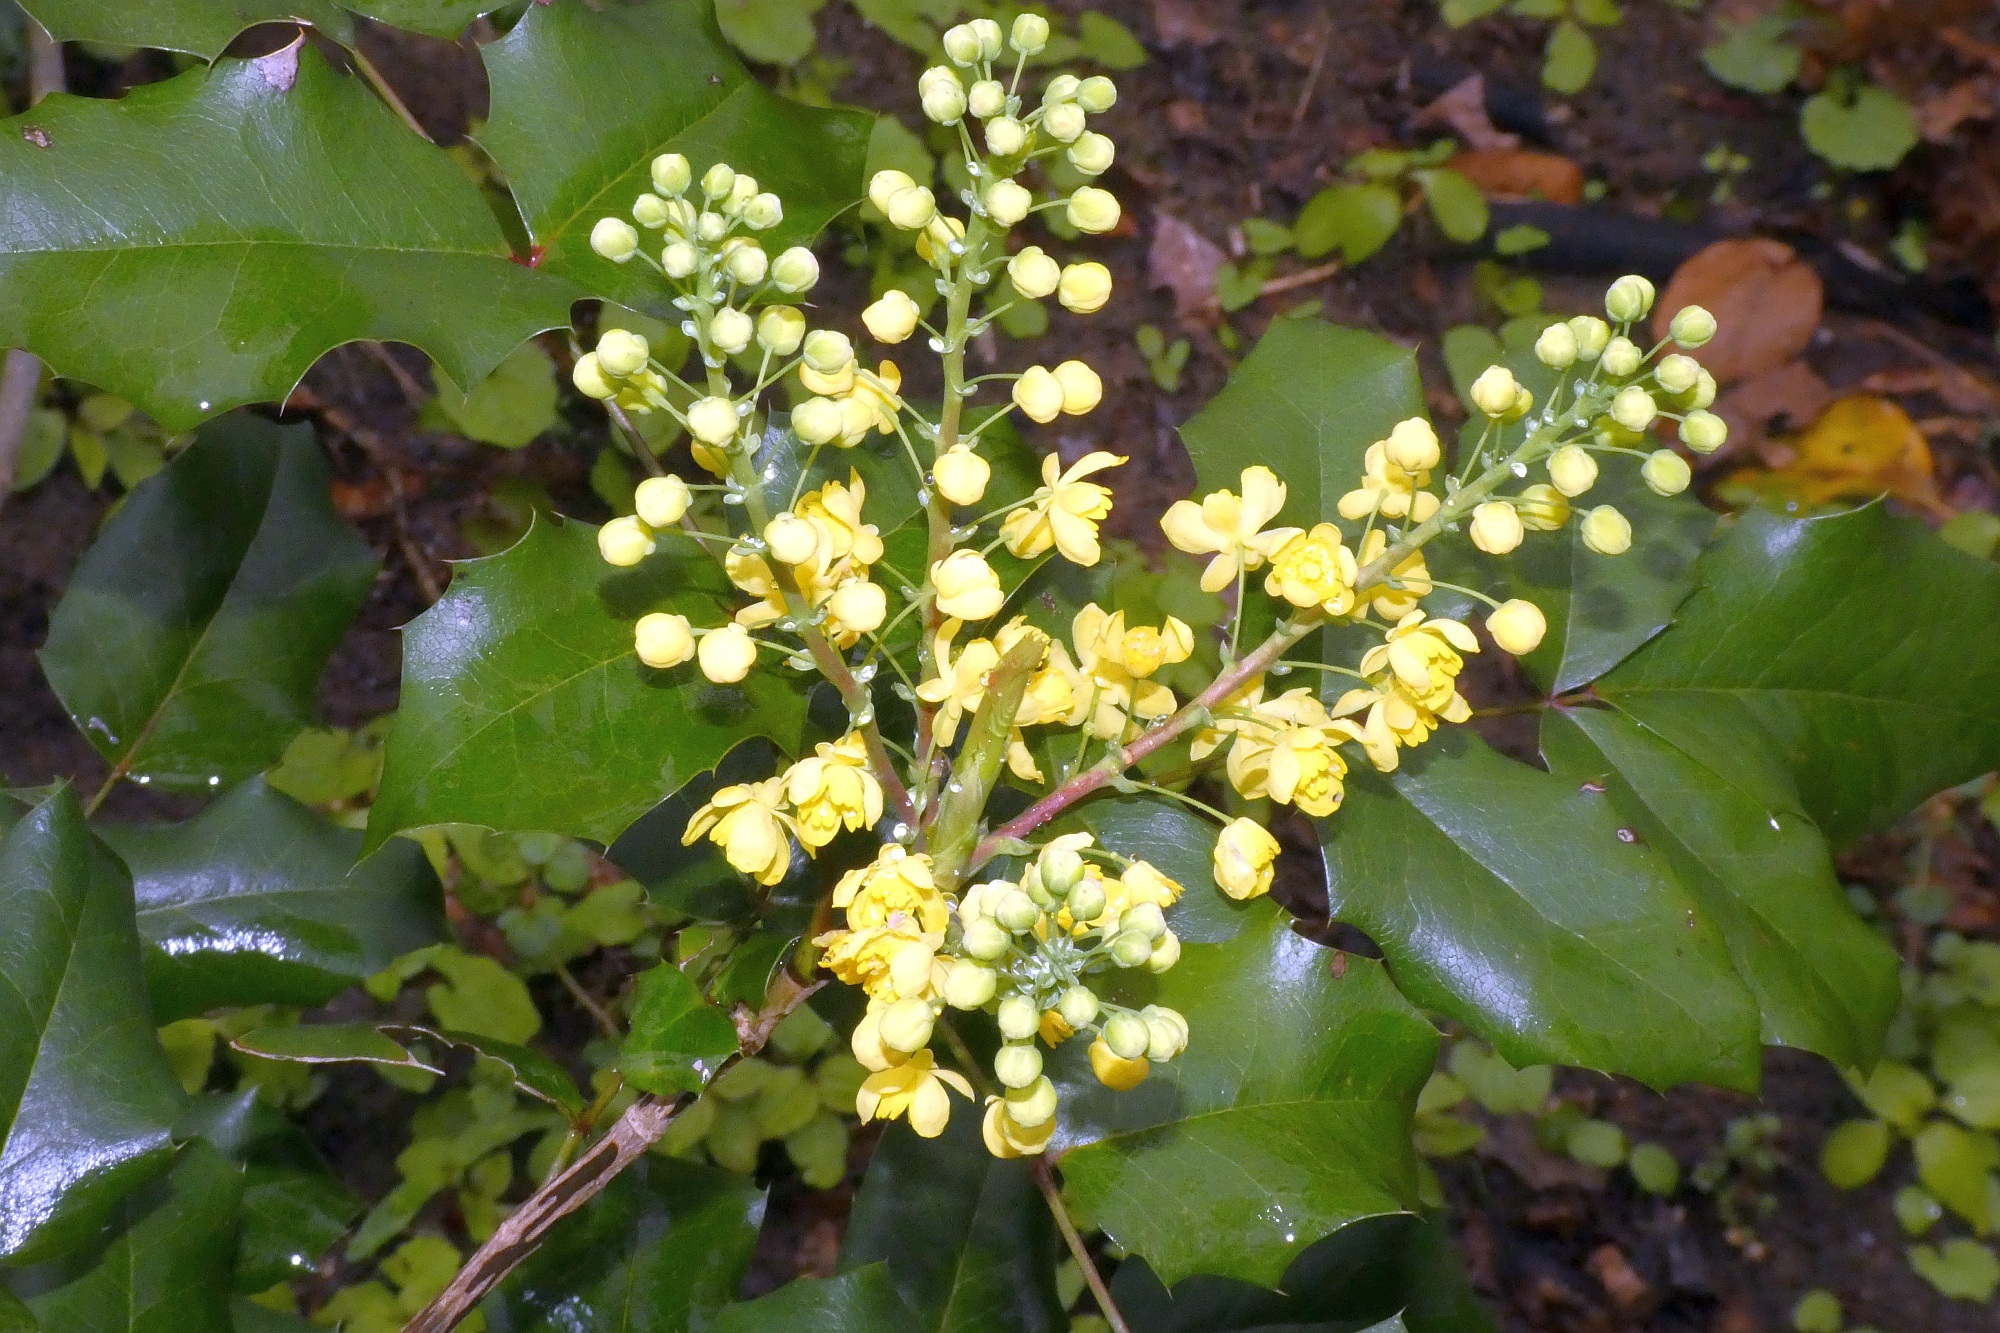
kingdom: Plantae
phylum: Tracheophyta
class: Magnoliopsida
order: Ranunculales
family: Berberidaceae
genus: Mahonia
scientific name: Mahonia aquifolium
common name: Oregon-grape
